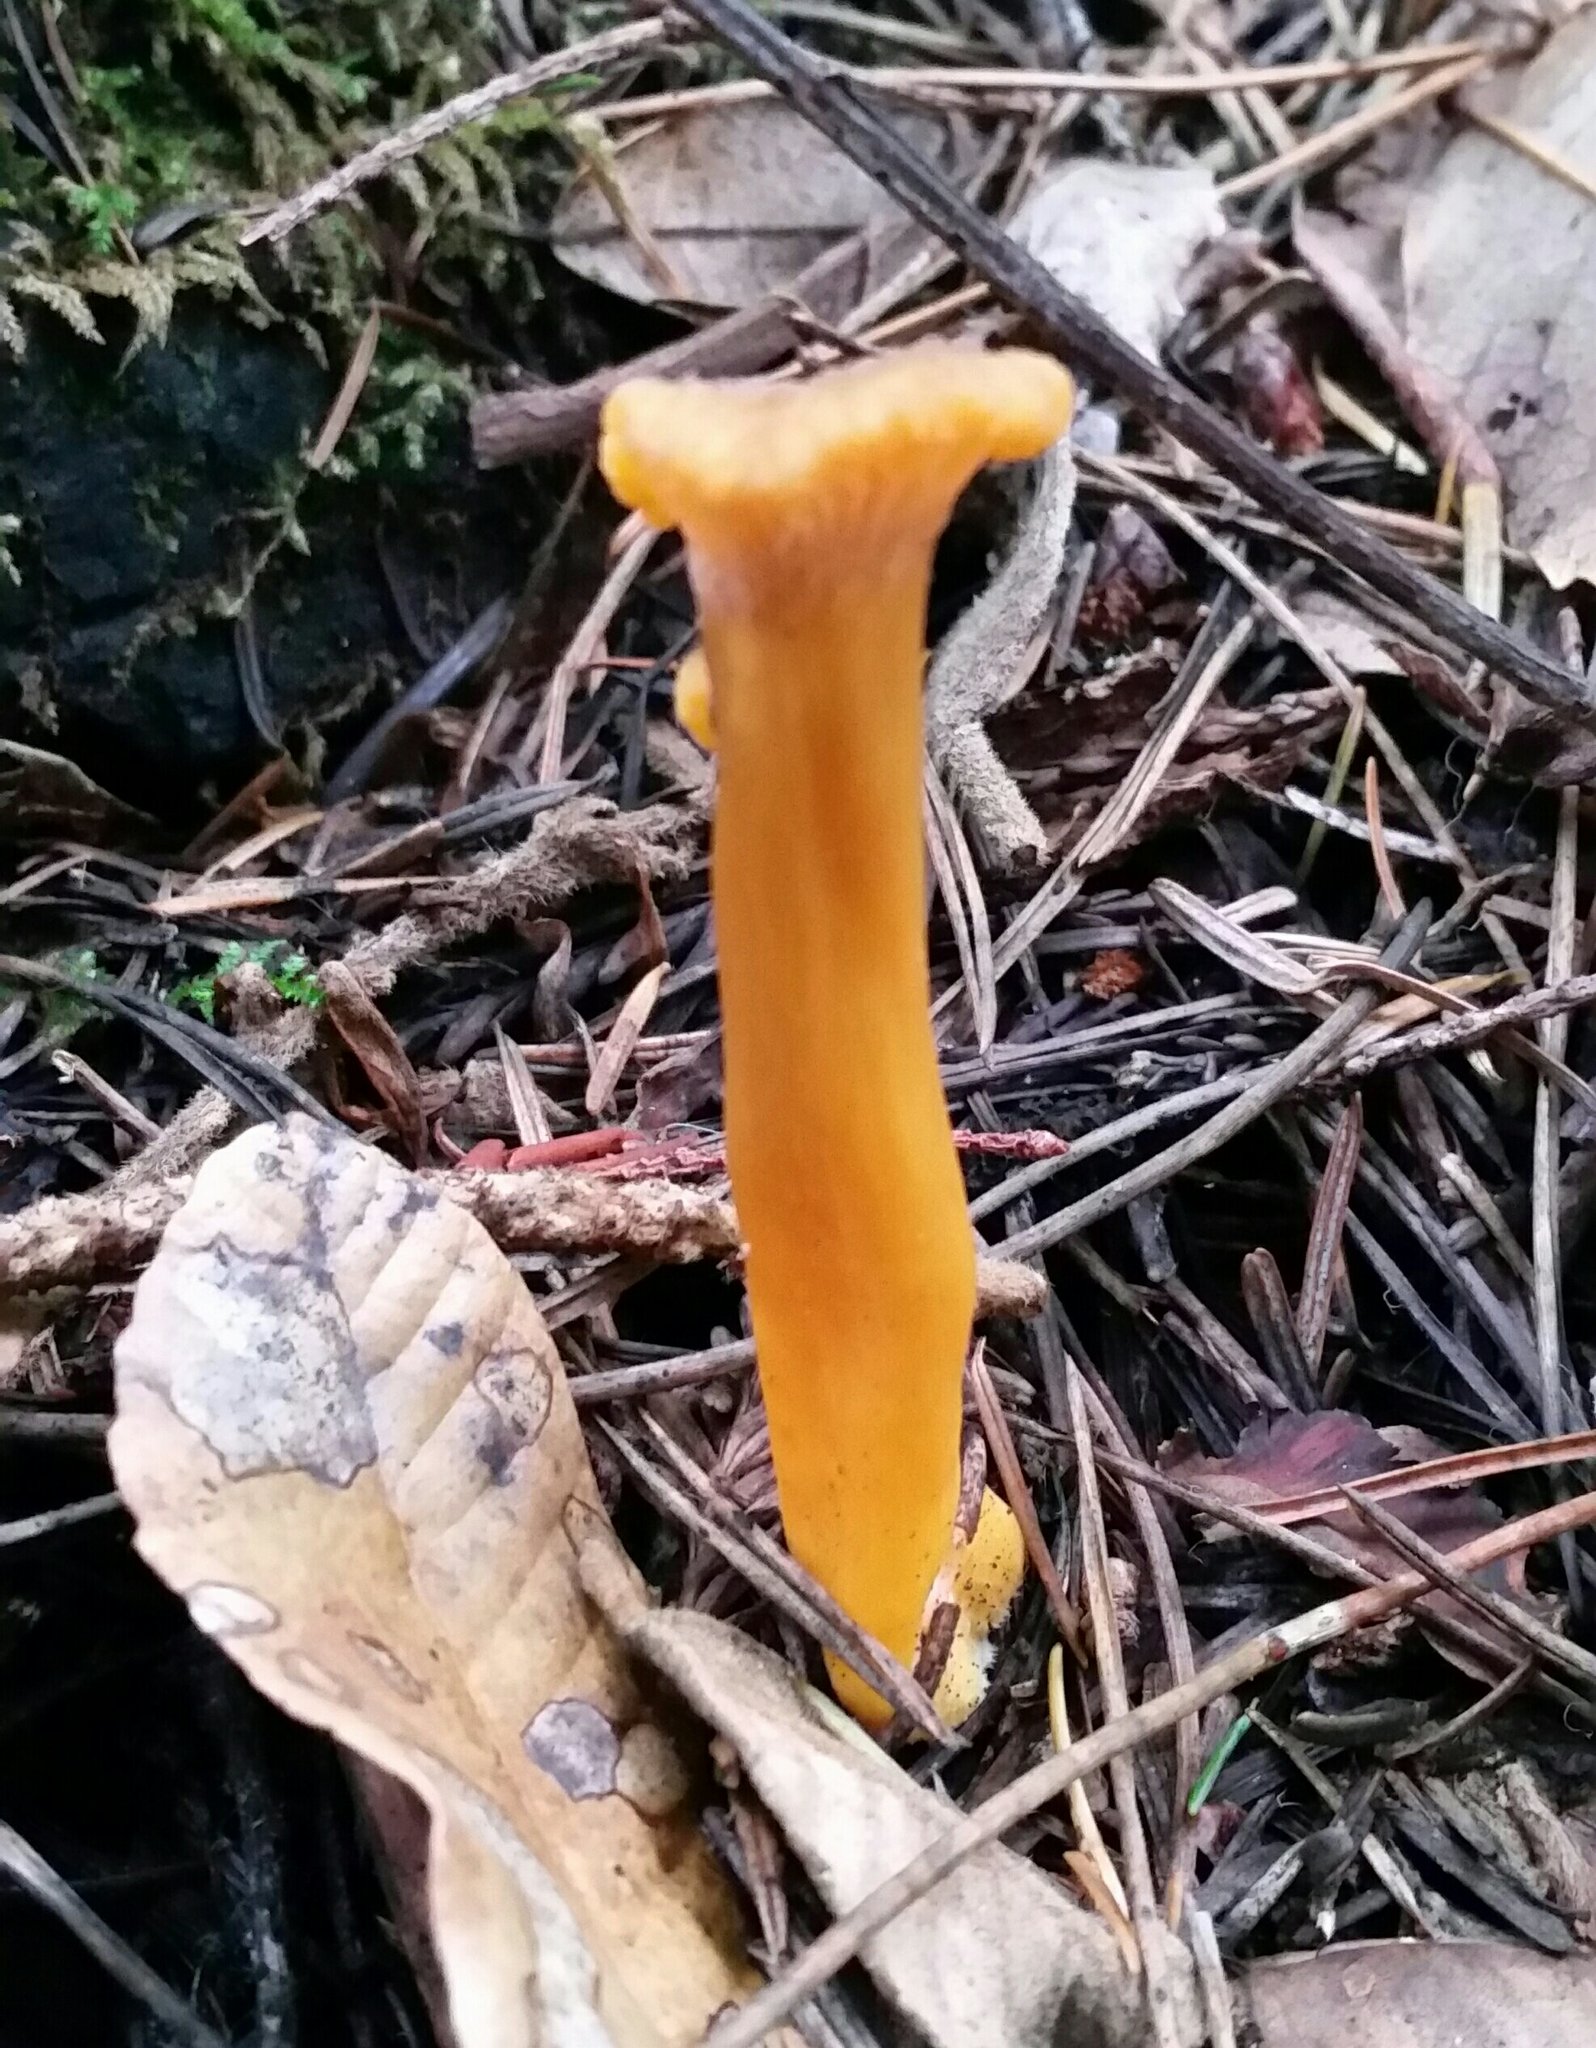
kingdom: Fungi
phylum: Basidiomycota
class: Agaricomycetes
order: Cantharellales
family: Hydnaceae
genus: Craterellus
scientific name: Craterellus tubaeformis
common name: Yellowfoot
